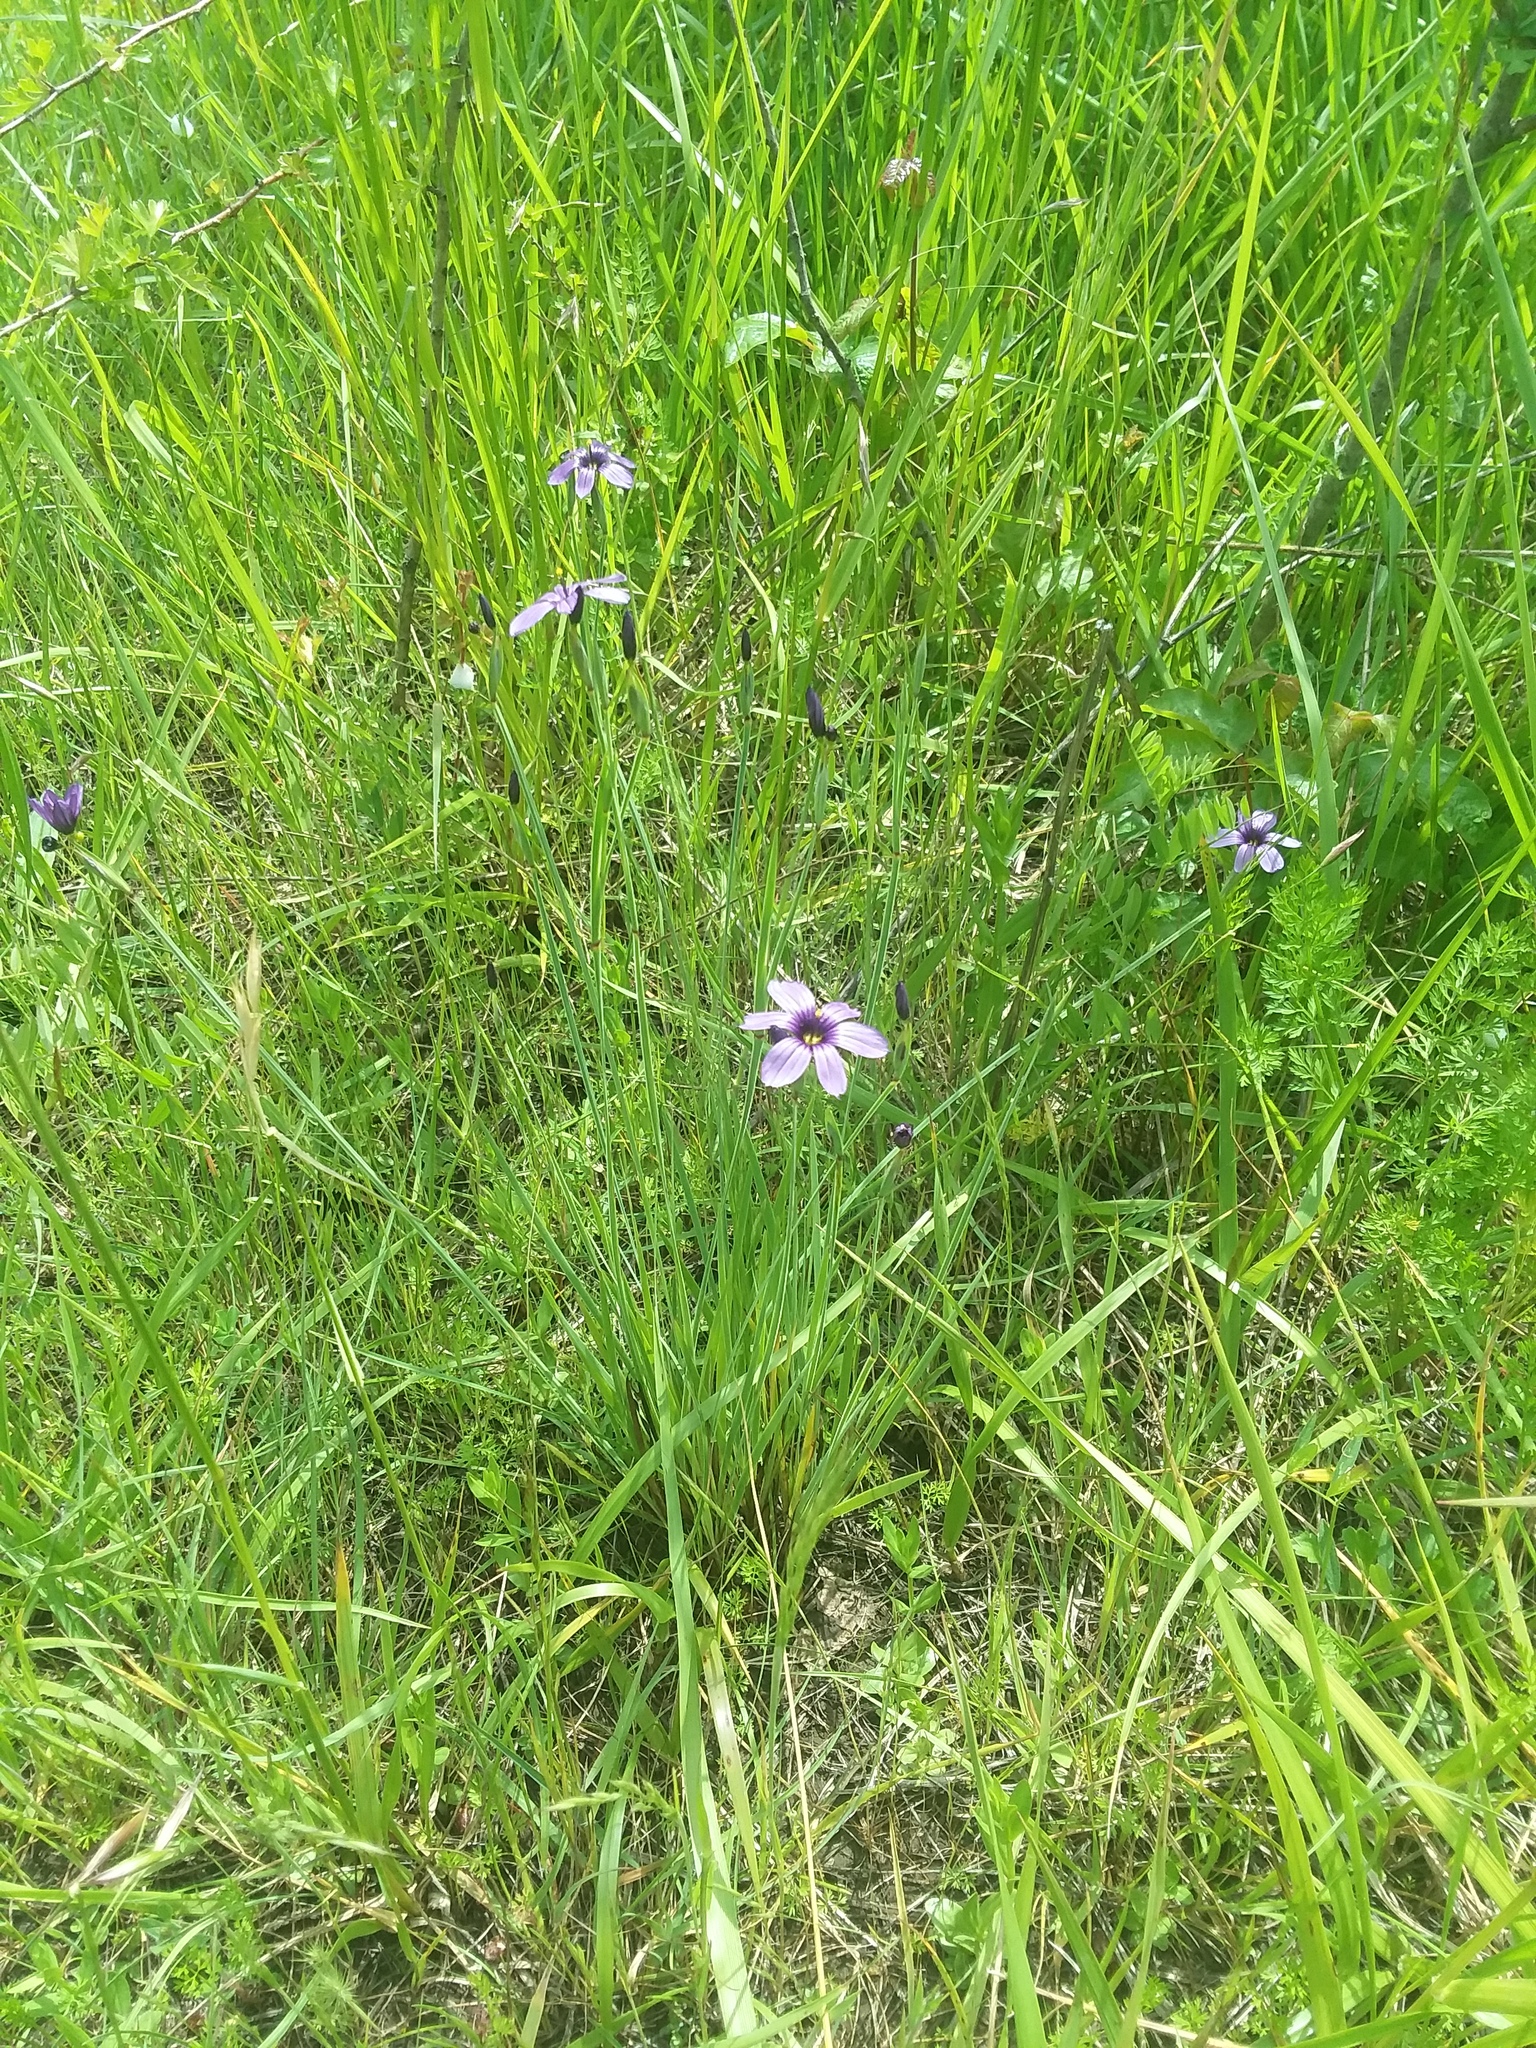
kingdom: Plantae
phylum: Tracheophyta
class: Liliopsida
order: Asparagales
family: Iridaceae
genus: Sisyrinchium
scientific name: Sisyrinchium bellum
